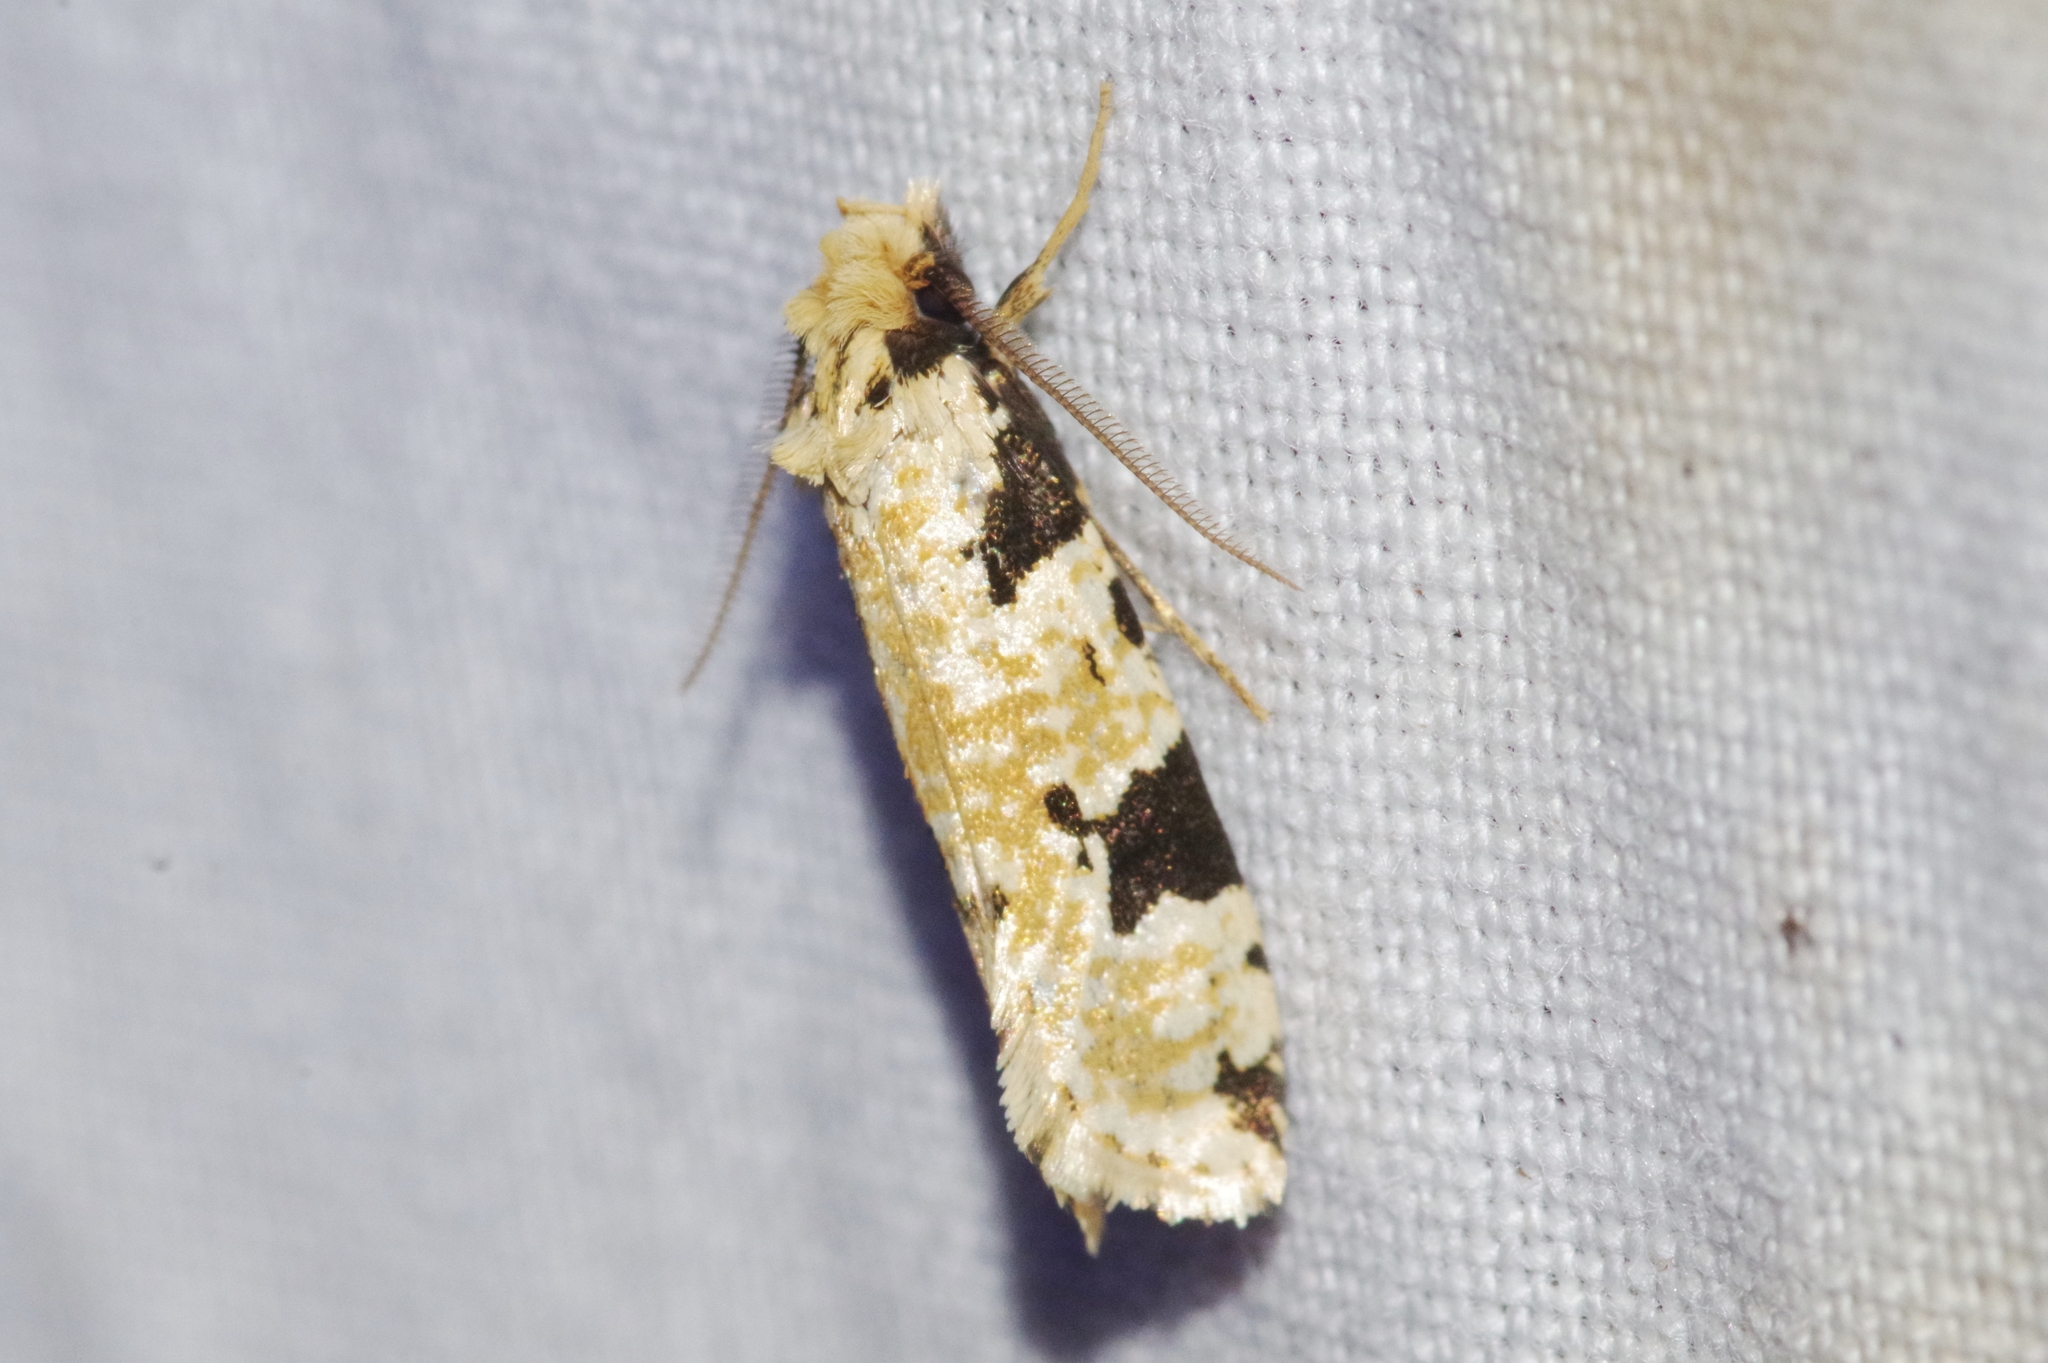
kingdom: Animalia
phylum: Arthropoda
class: Insecta
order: Lepidoptera
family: Tineidae
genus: Pelecystola
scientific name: Pelecystola strigosa
